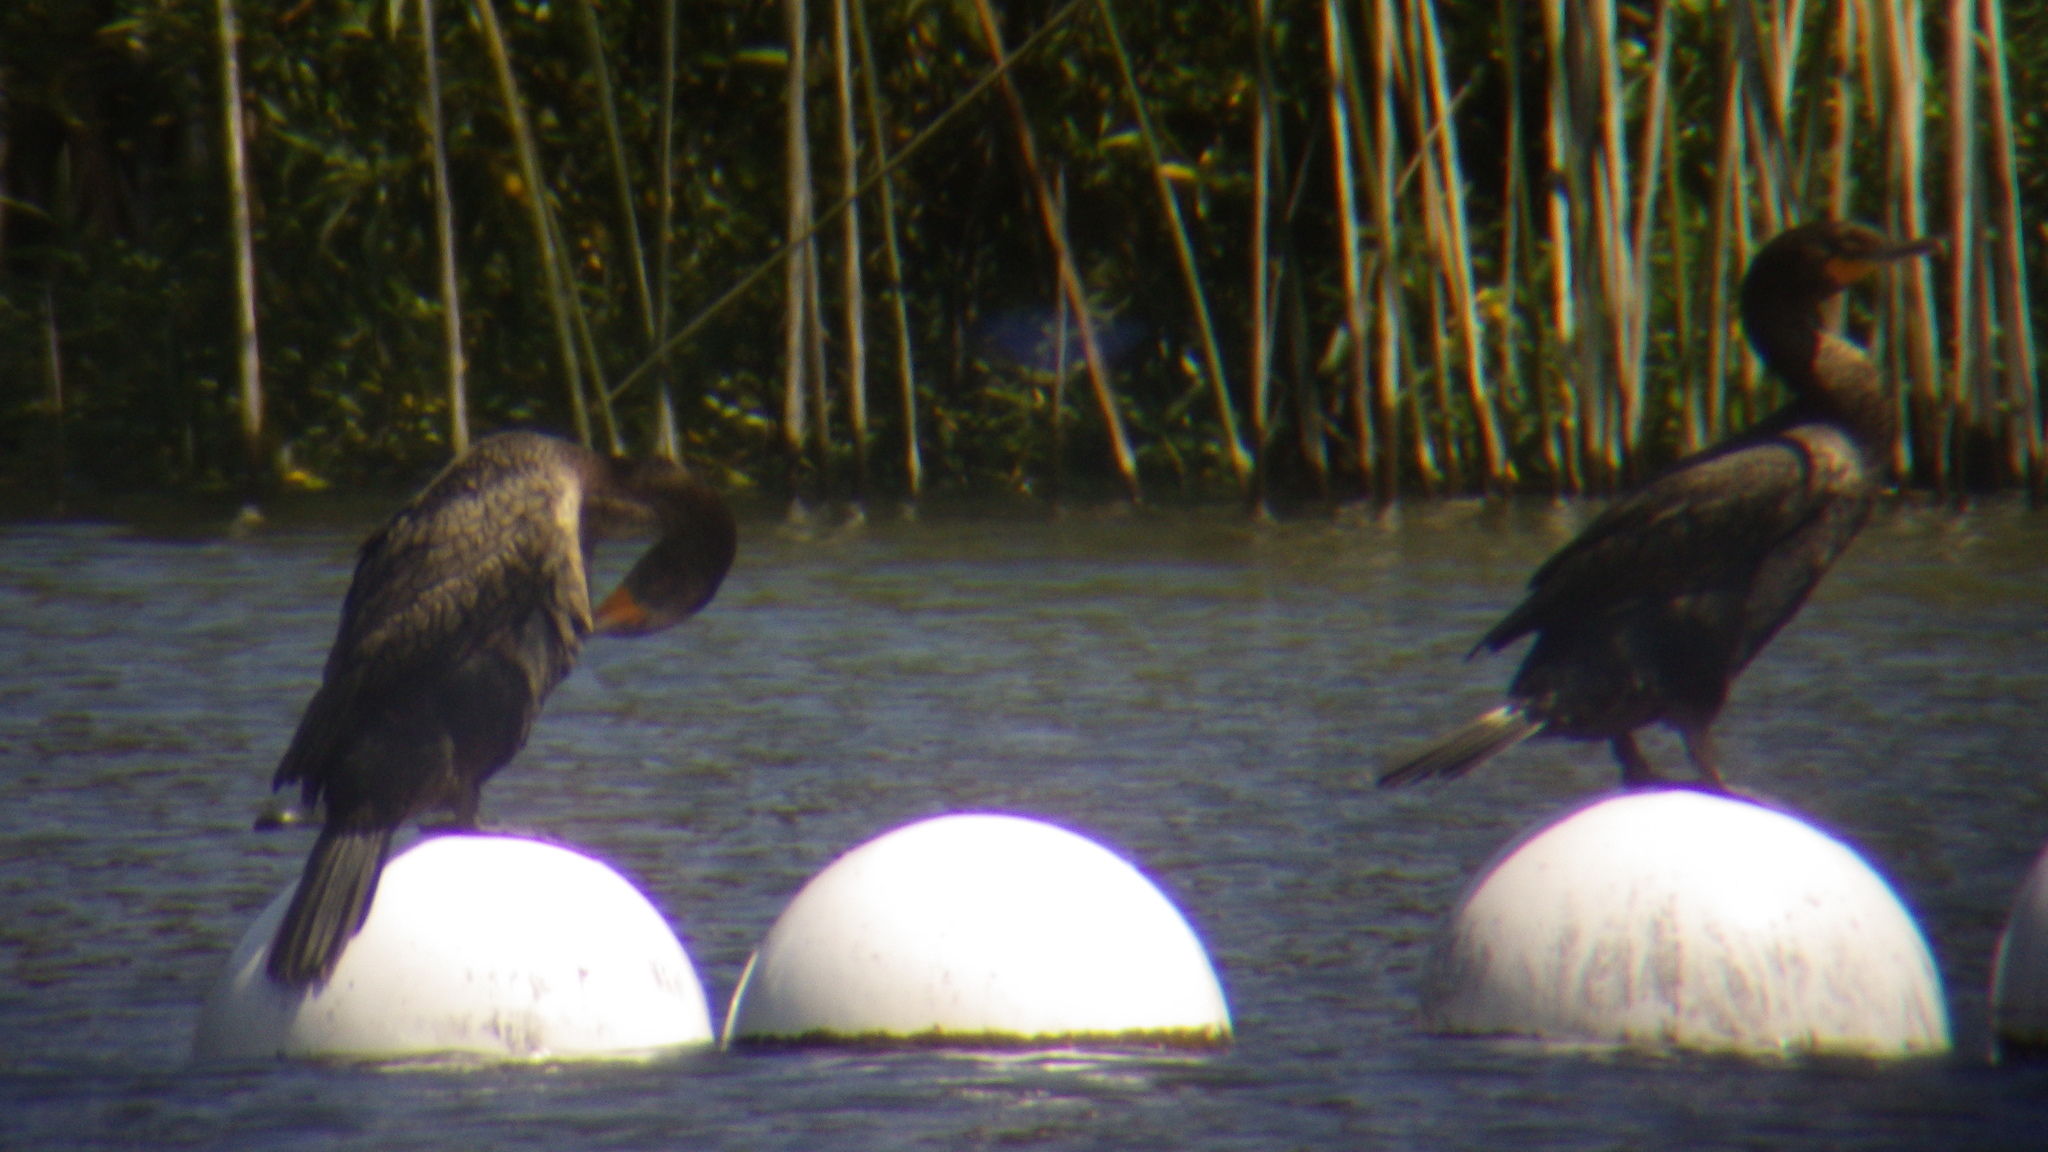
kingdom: Animalia
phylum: Chordata
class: Aves
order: Suliformes
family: Phalacrocoracidae
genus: Phalacrocorax
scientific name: Phalacrocorax auritus
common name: Double-crested cormorant
